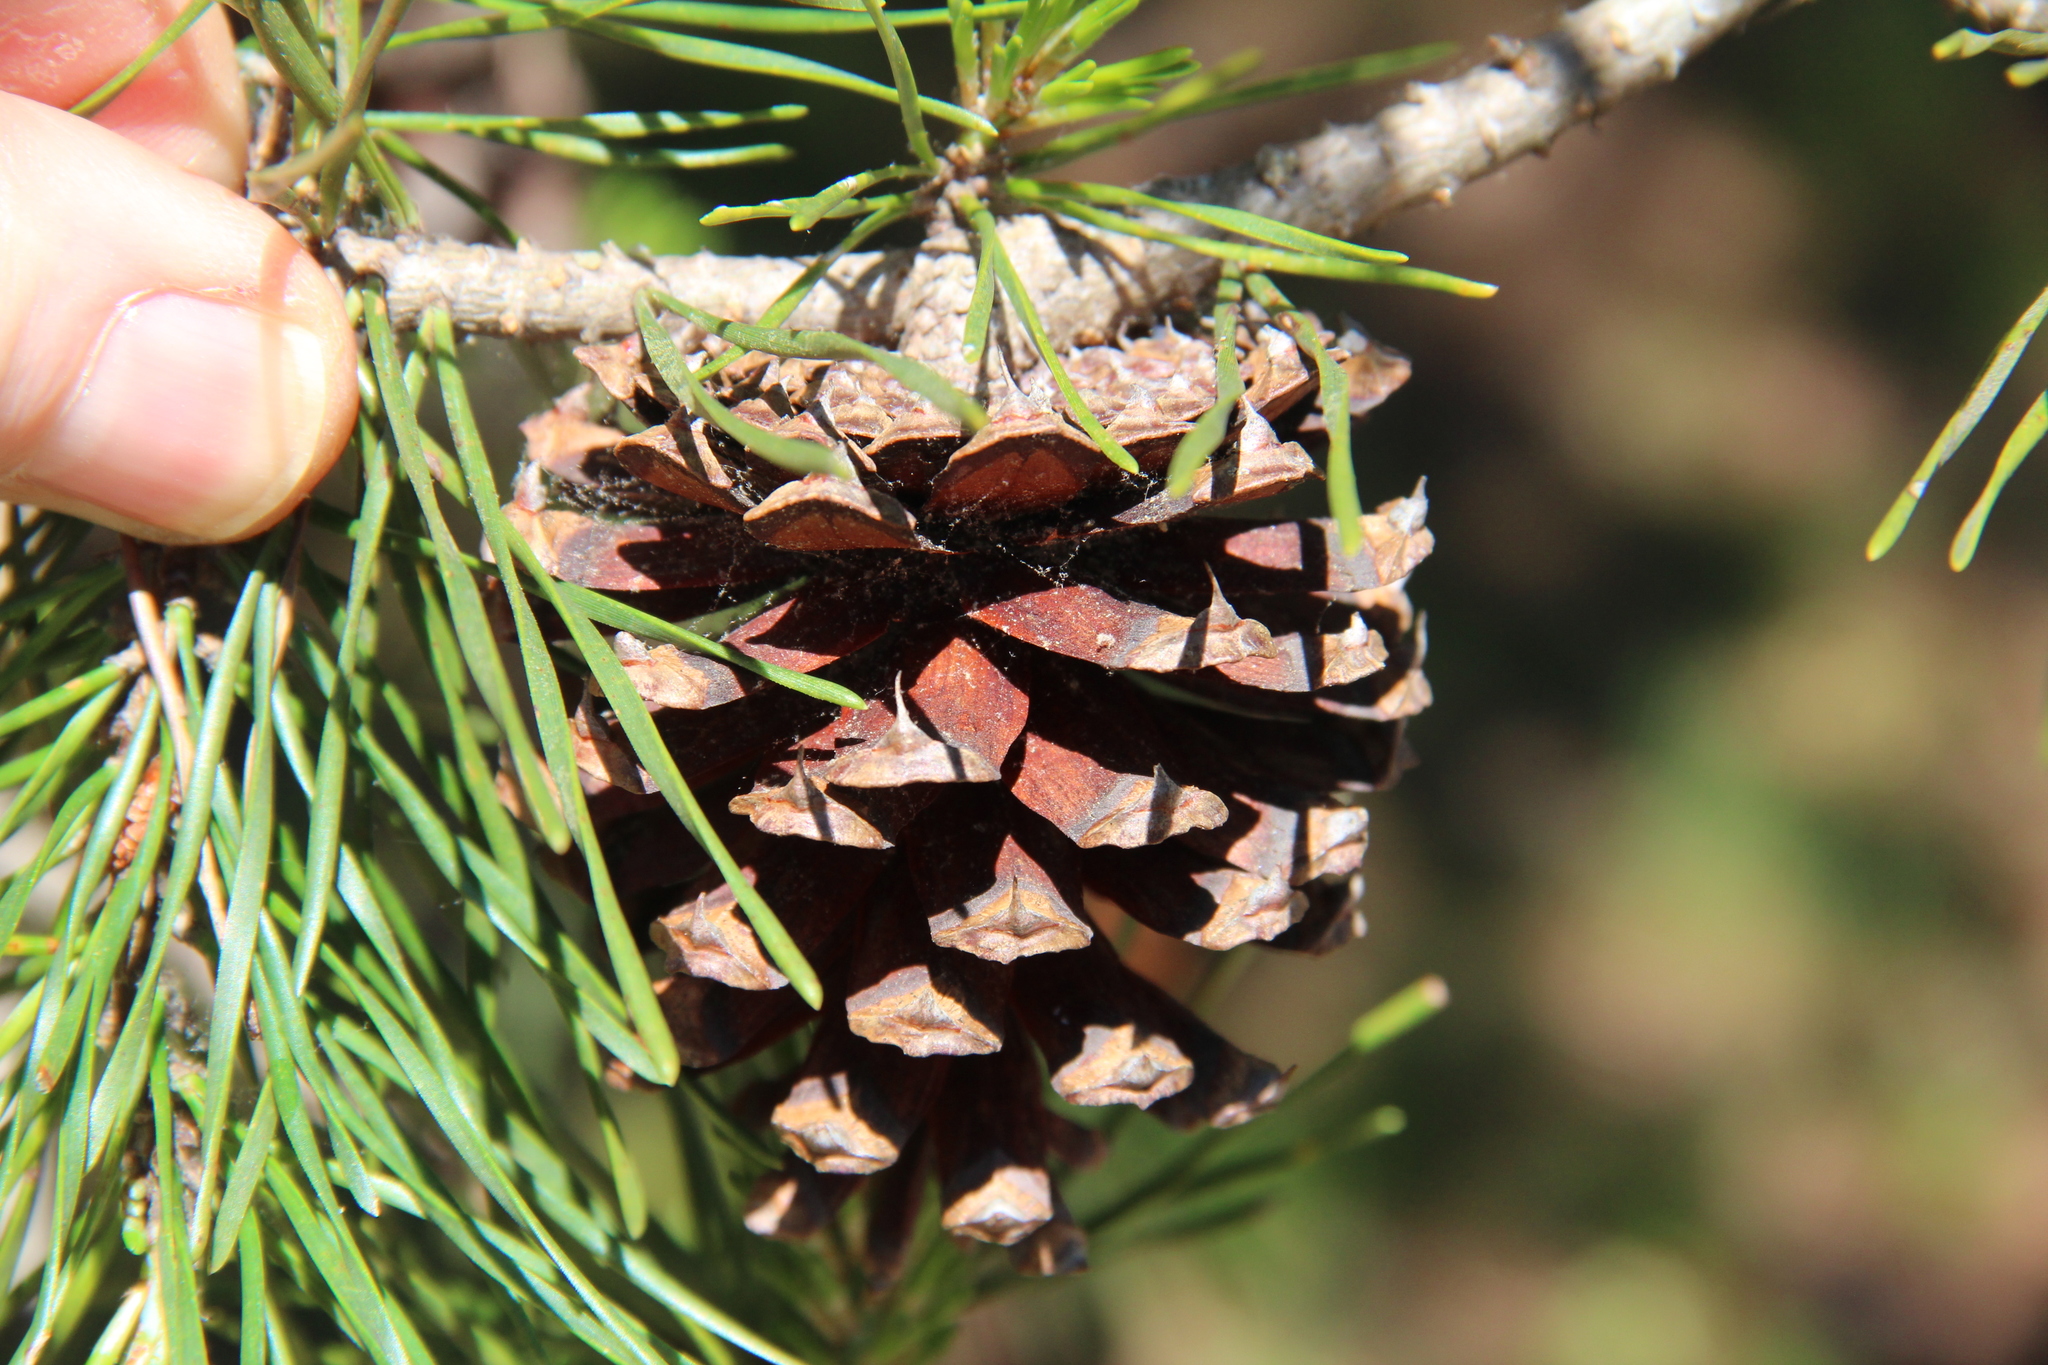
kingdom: Plantae
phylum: Tracheophyta
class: Pinopsida
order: Pinales
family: Pinaceae
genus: Pinus
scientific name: Pinus virginiana
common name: Scrub pine
